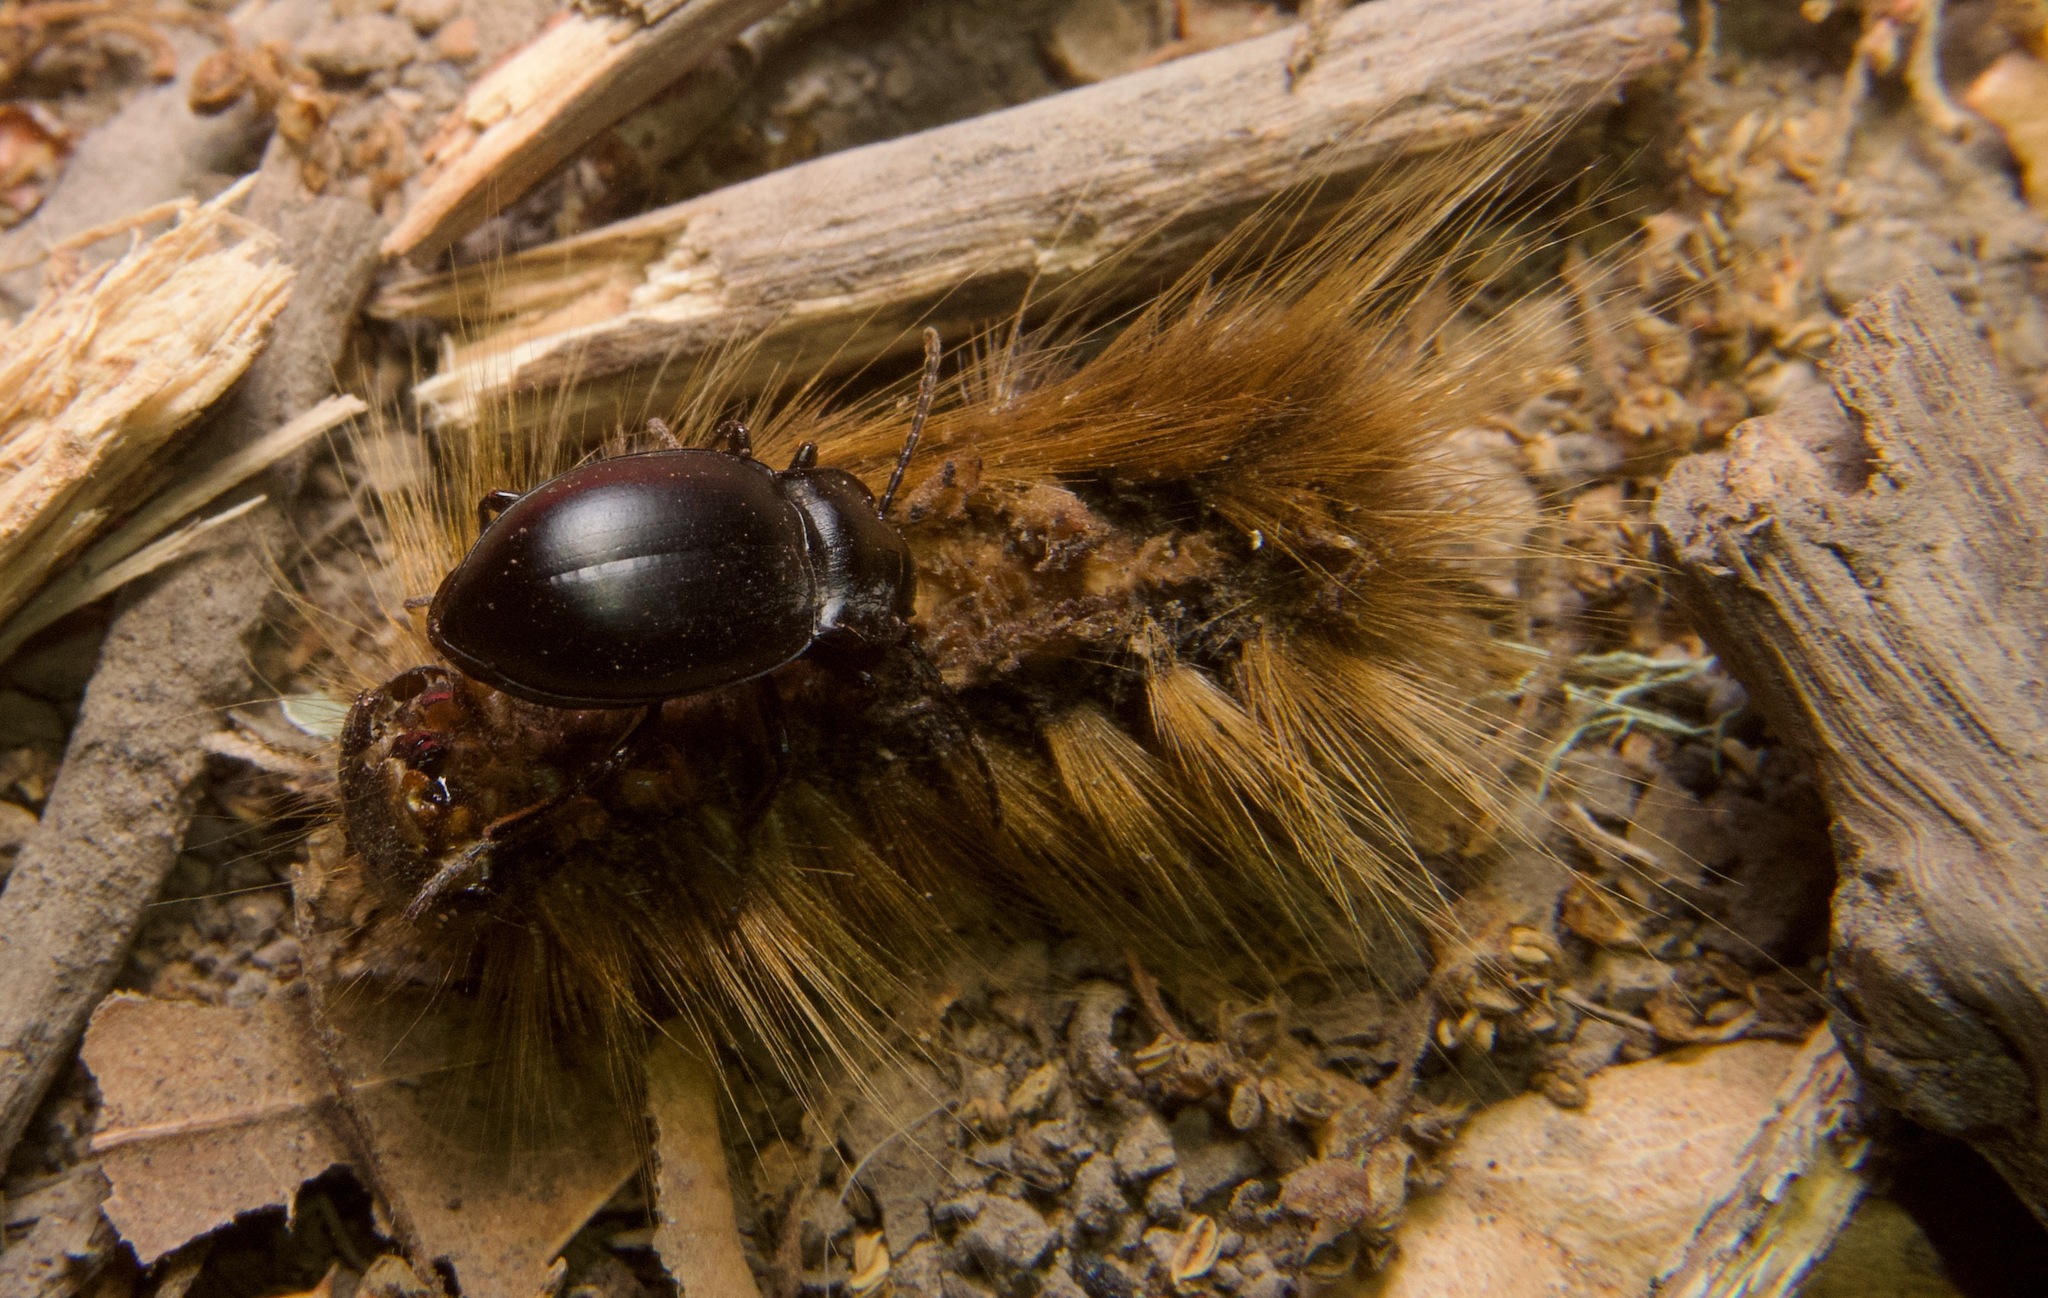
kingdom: Animalia
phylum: Arthropoda
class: Insecta
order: Coleoptera
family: Carabidae
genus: Metrius
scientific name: Metrius contractus
